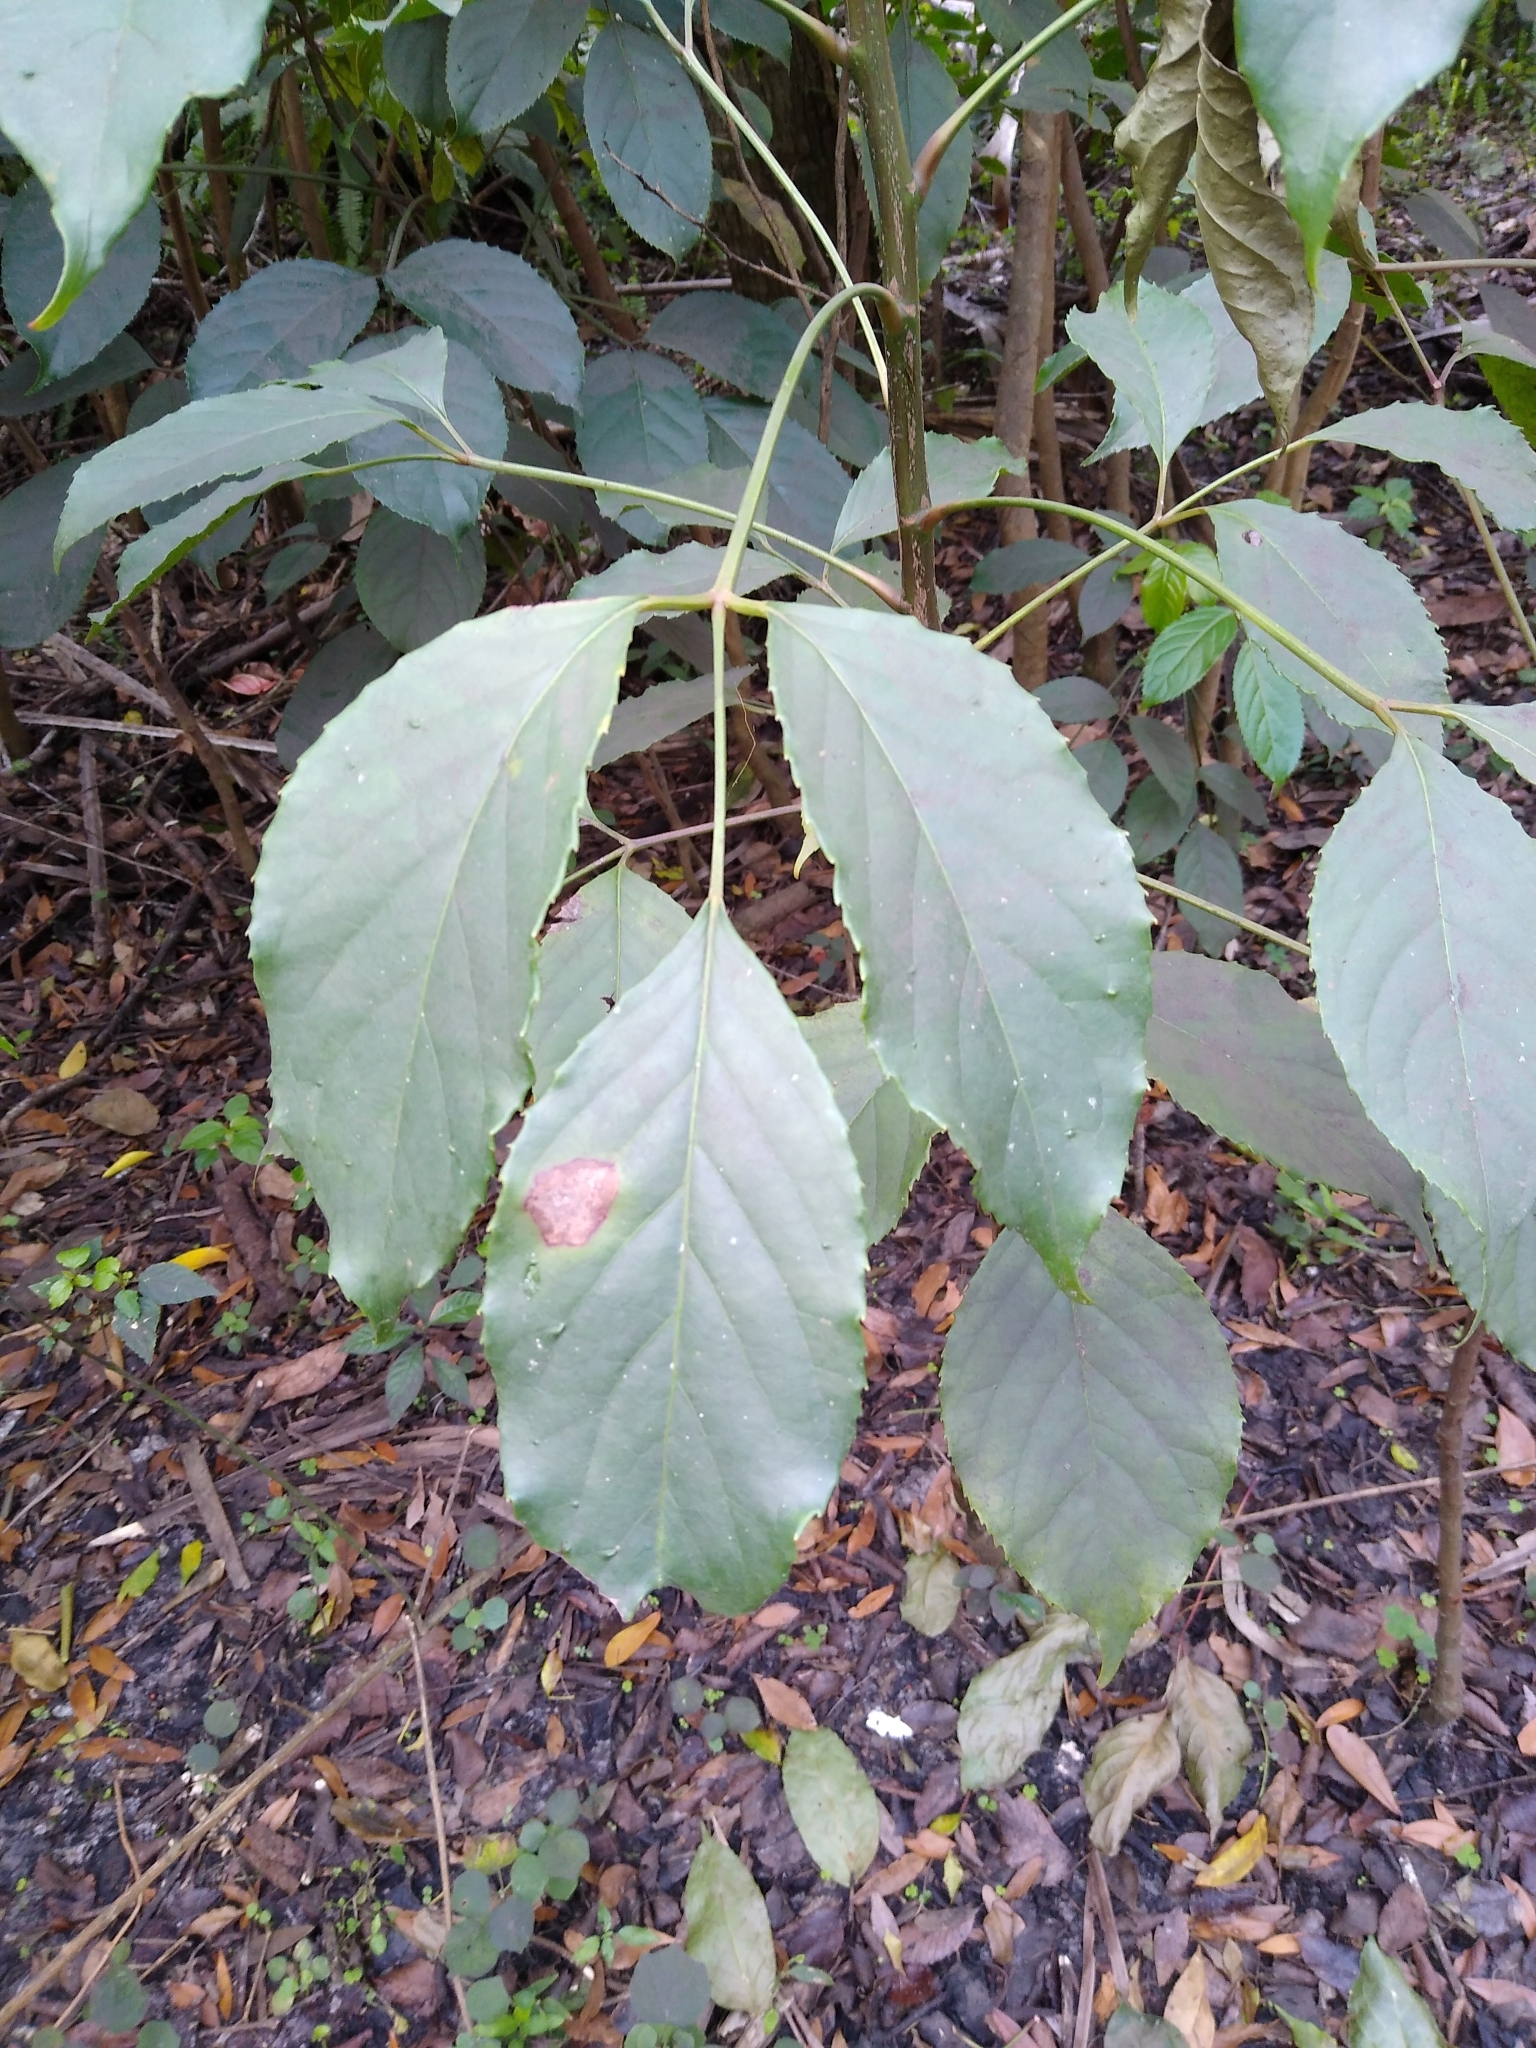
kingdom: Plantae
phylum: Tracheophyta
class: Magnoliopsida
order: Malpighiales
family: Phyllanthaceae
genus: Bischofia
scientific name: Bischofia javanica
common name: Javanese bishopwood
